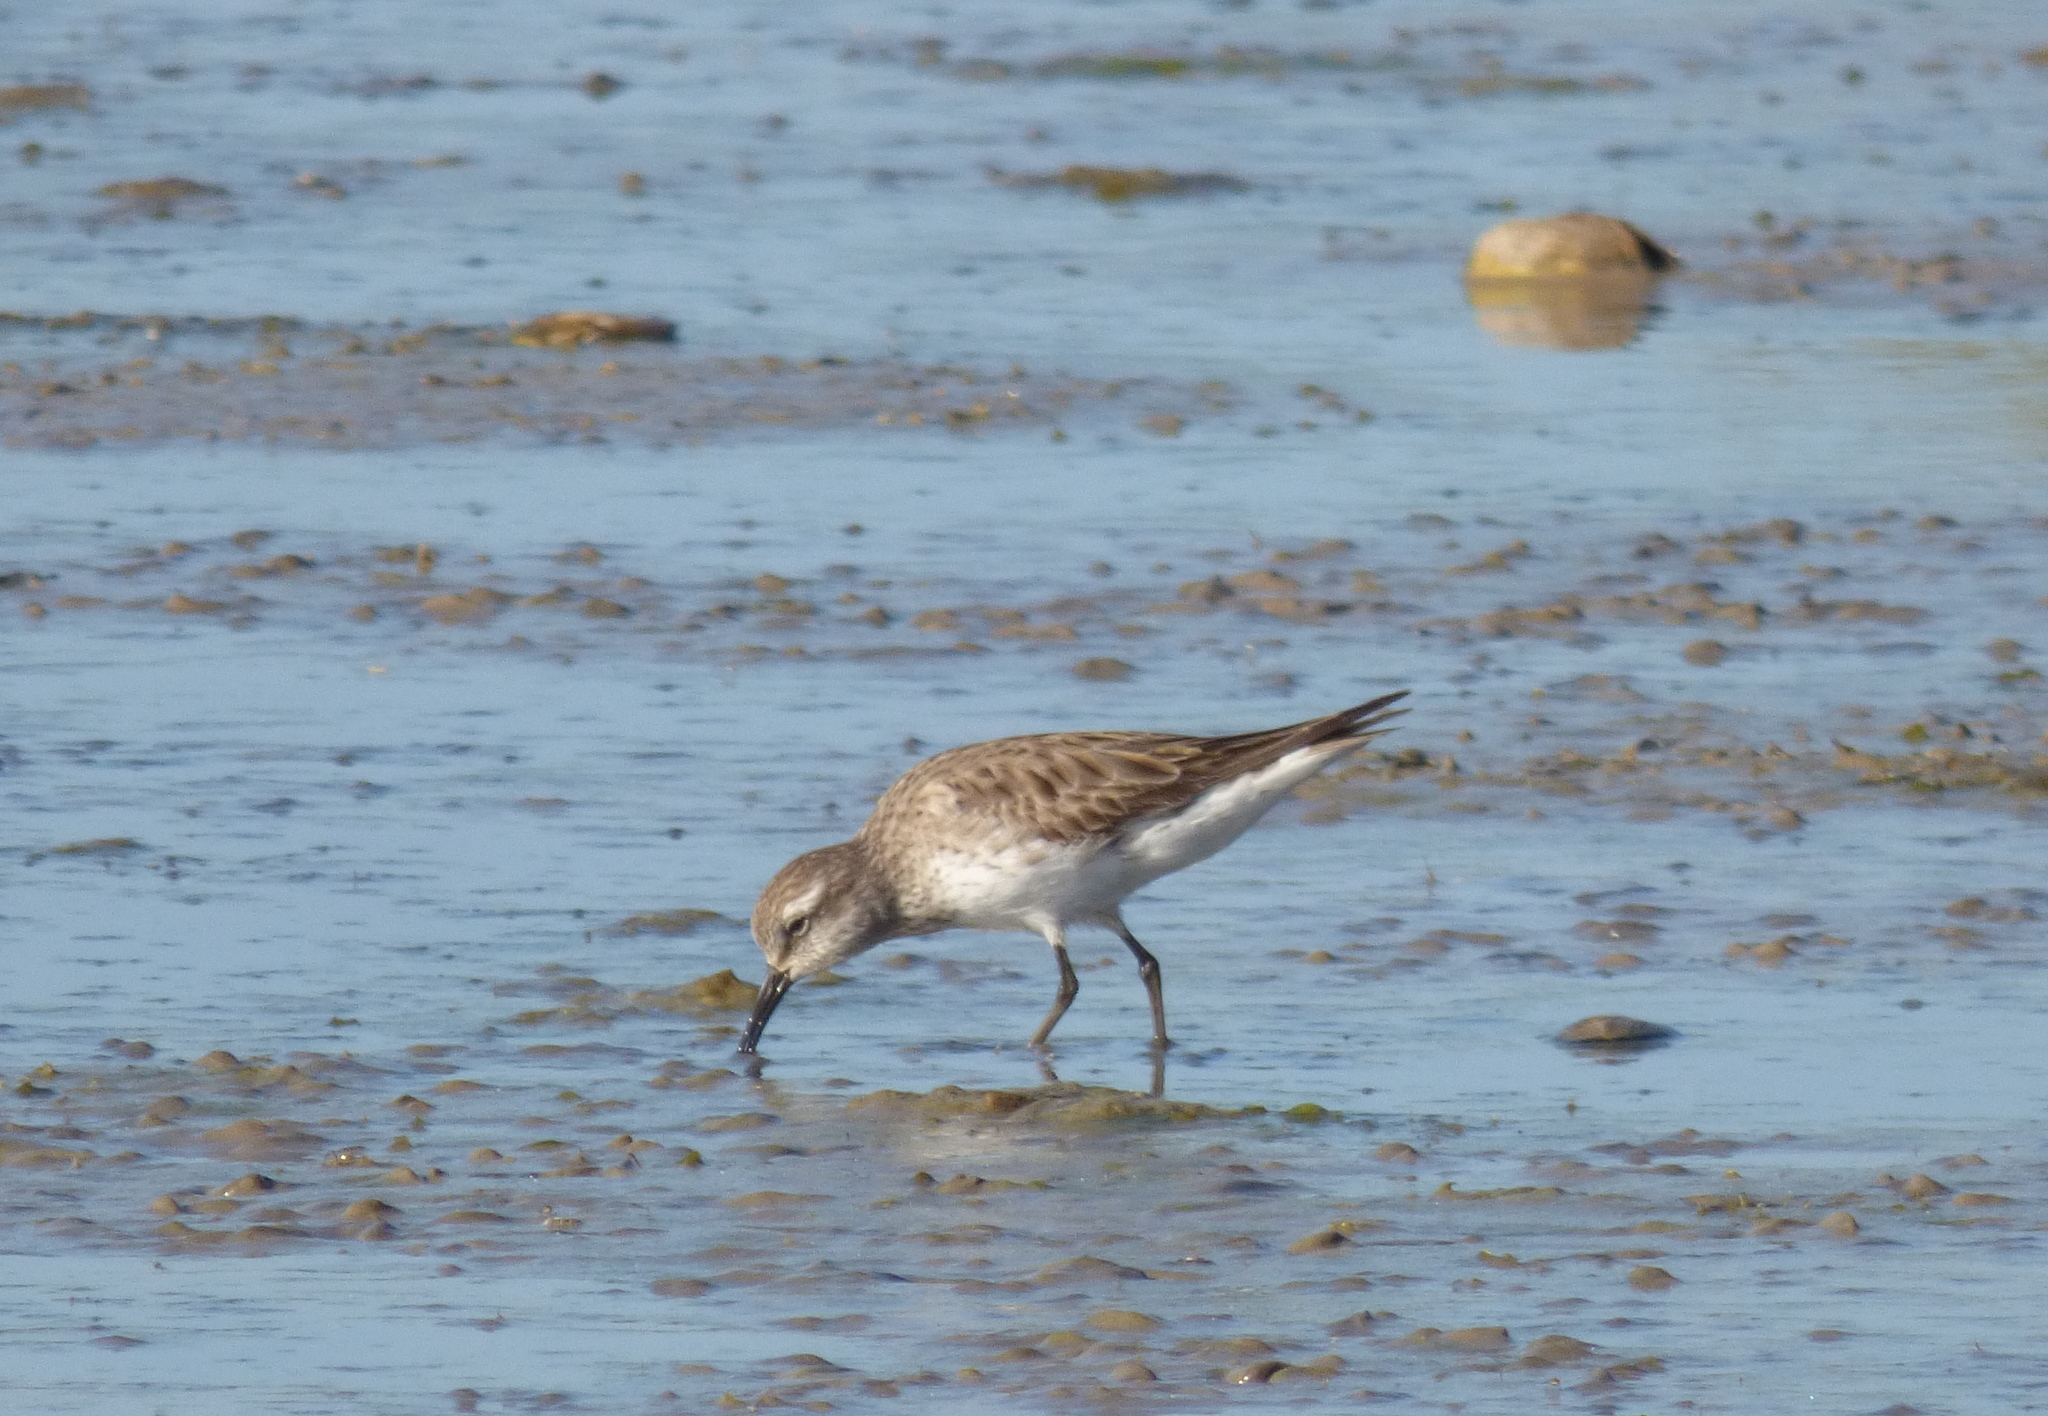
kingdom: Animalia
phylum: Chordata
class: Aves
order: Charadriiformes
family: Scolopacidae
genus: Calidris
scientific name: Calidris fuscicollis
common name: White-rumped sandpiper
